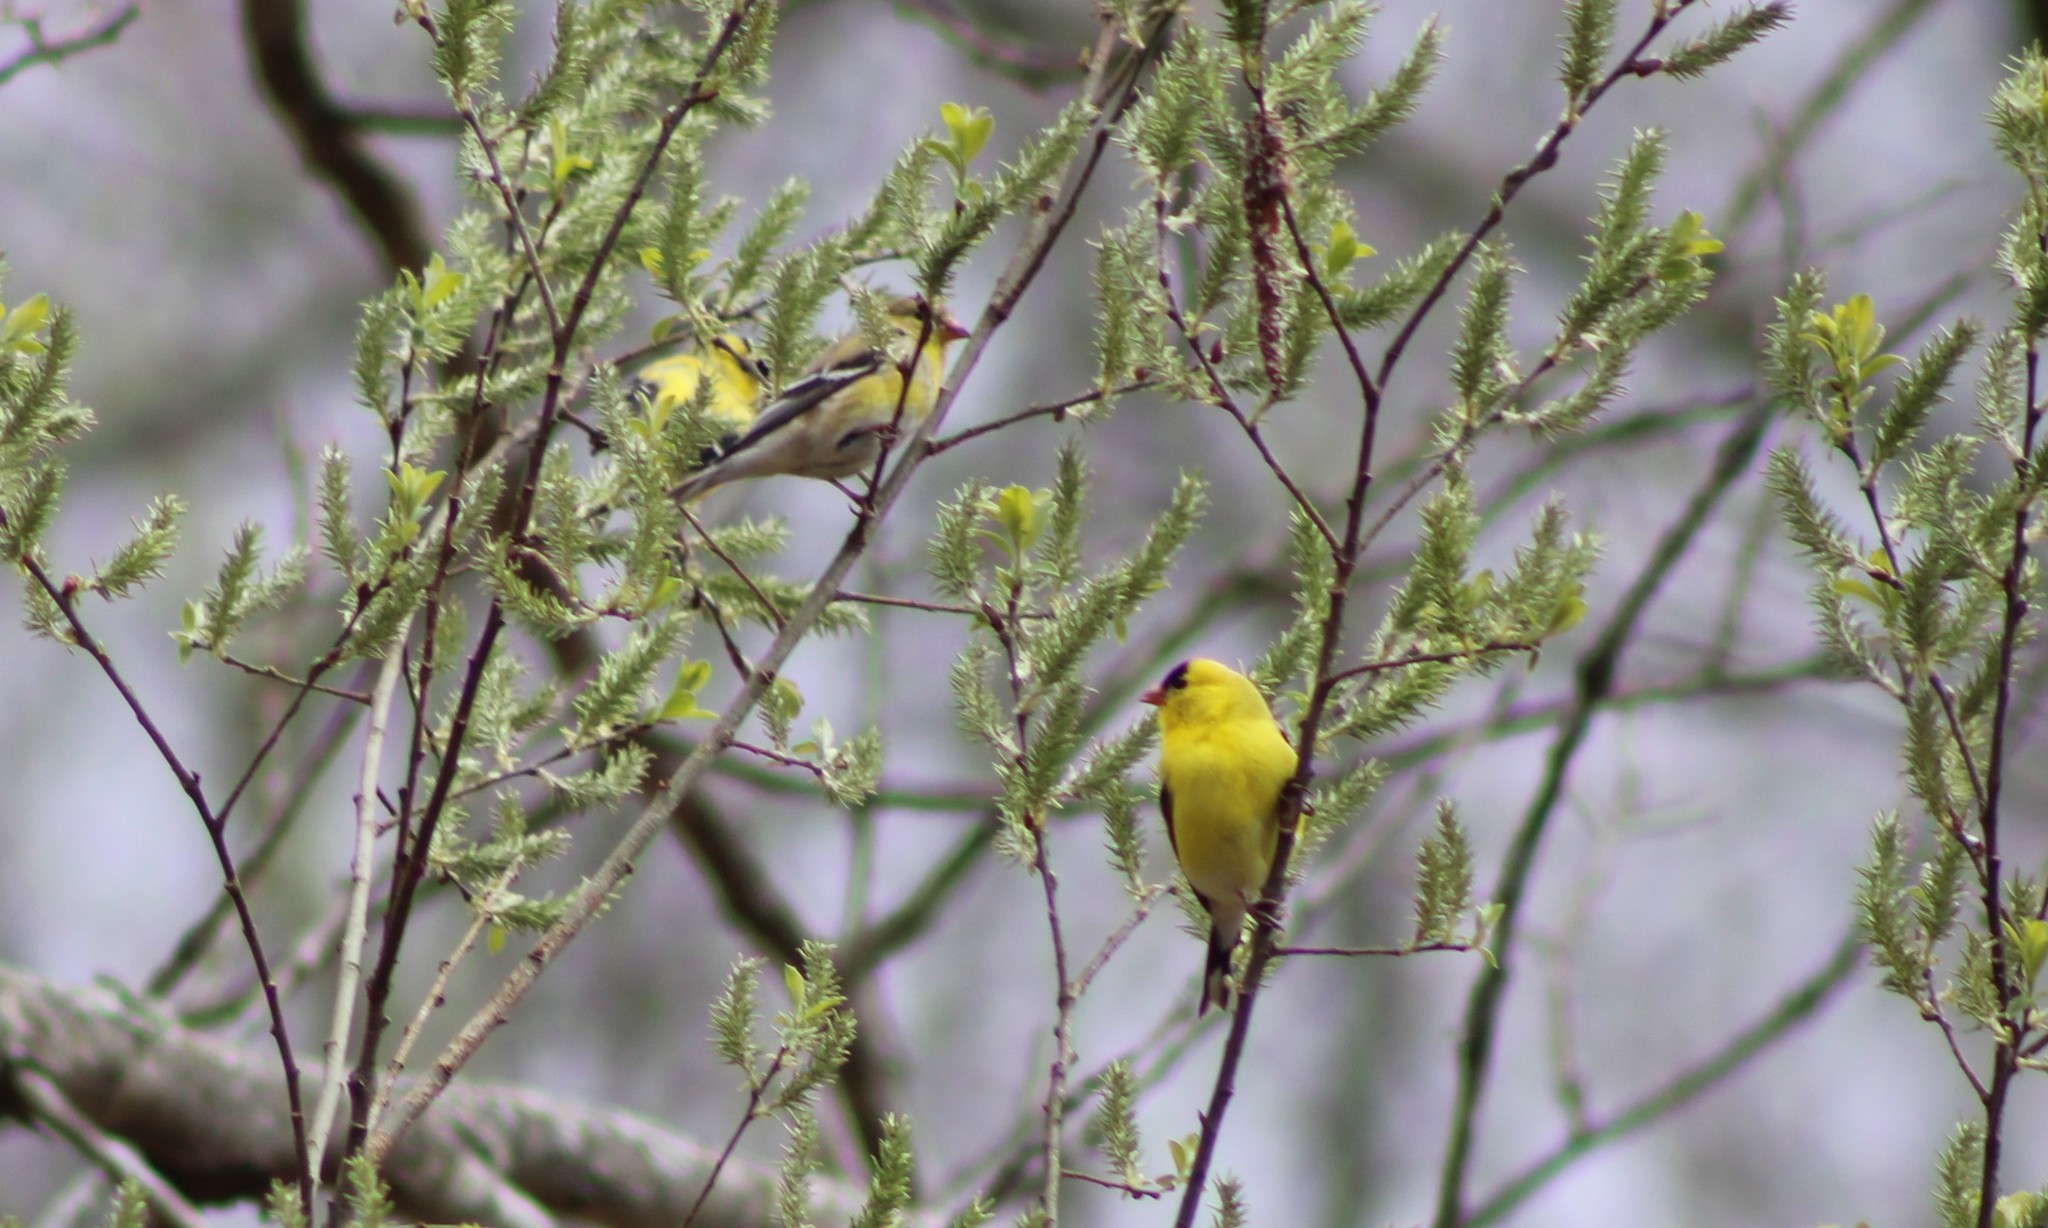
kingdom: Animalia
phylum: Chordata
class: Aves
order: Passeriformes
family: Fringillidae
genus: Spinus
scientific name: Spinus tristis
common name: American goldfinch
